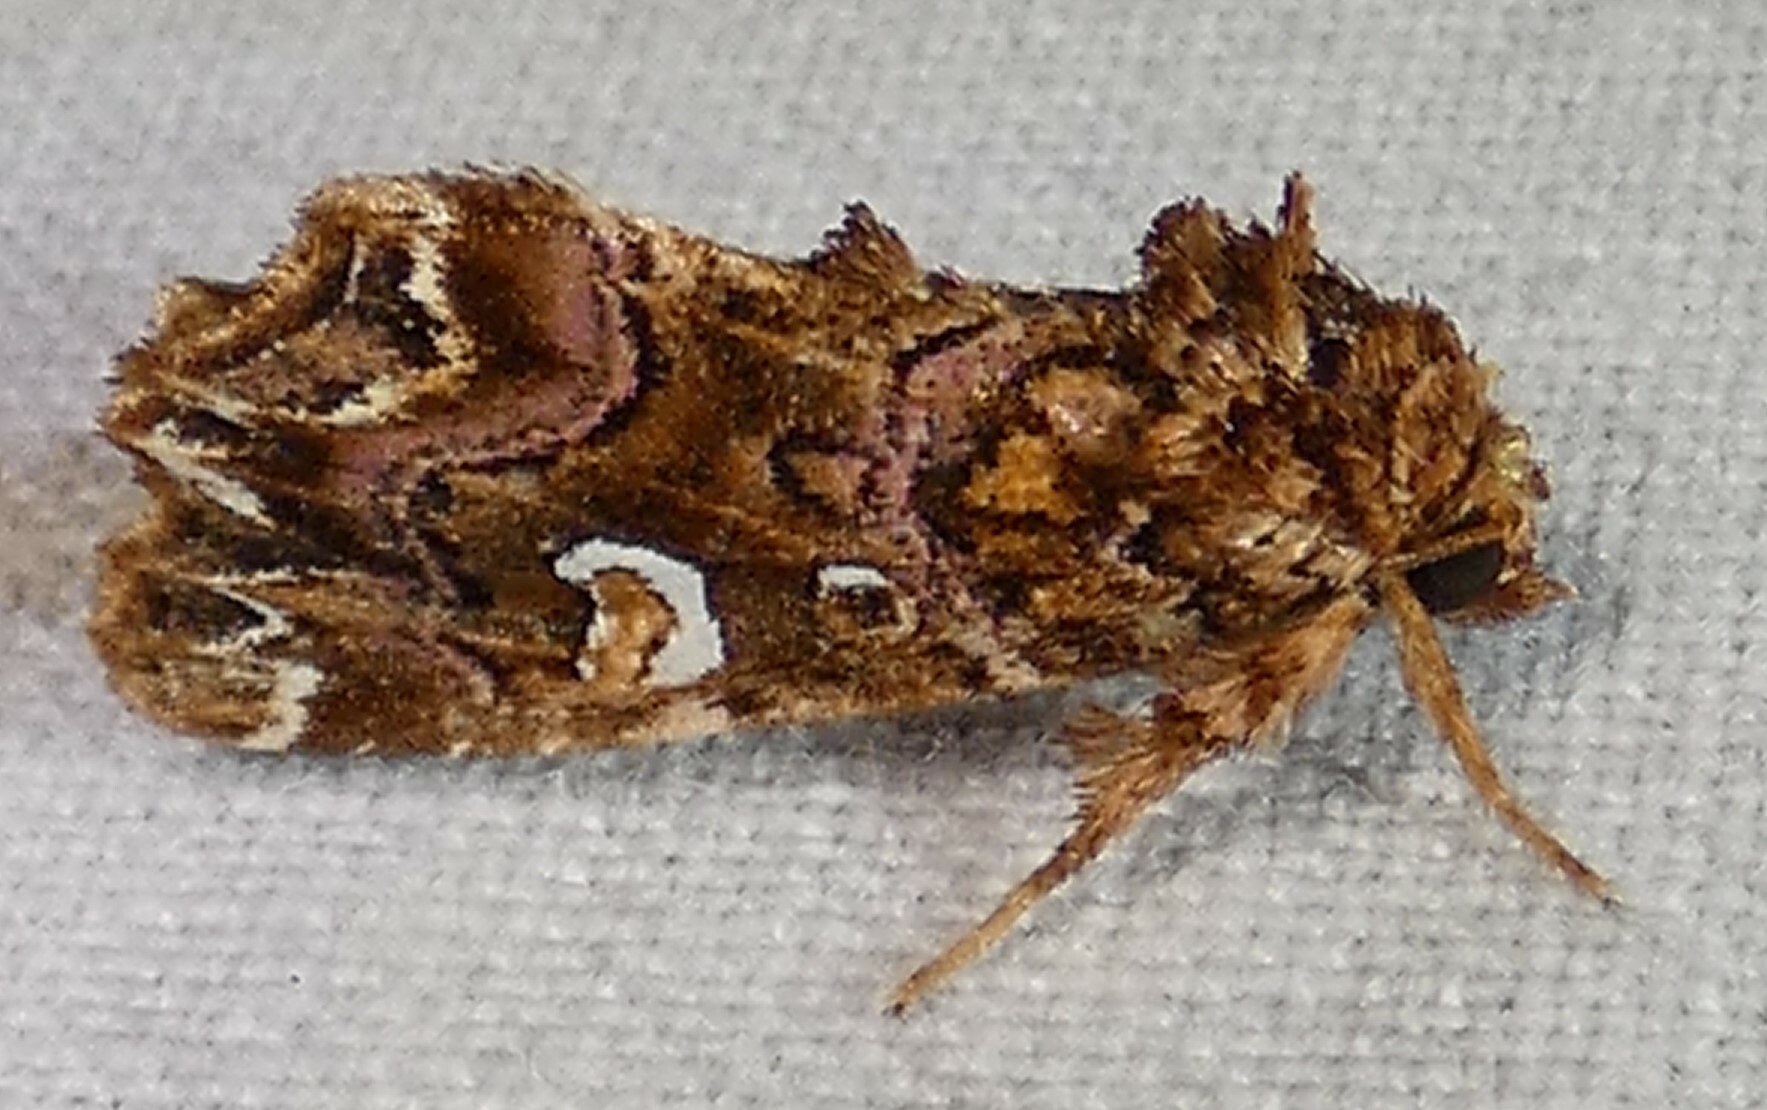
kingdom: Animalia
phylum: Arthropoda
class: Insecta
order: Lepidoptera
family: Noctuidae
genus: Callopistria
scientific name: Callopistria mollissima
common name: Pink-shaded fern moth
